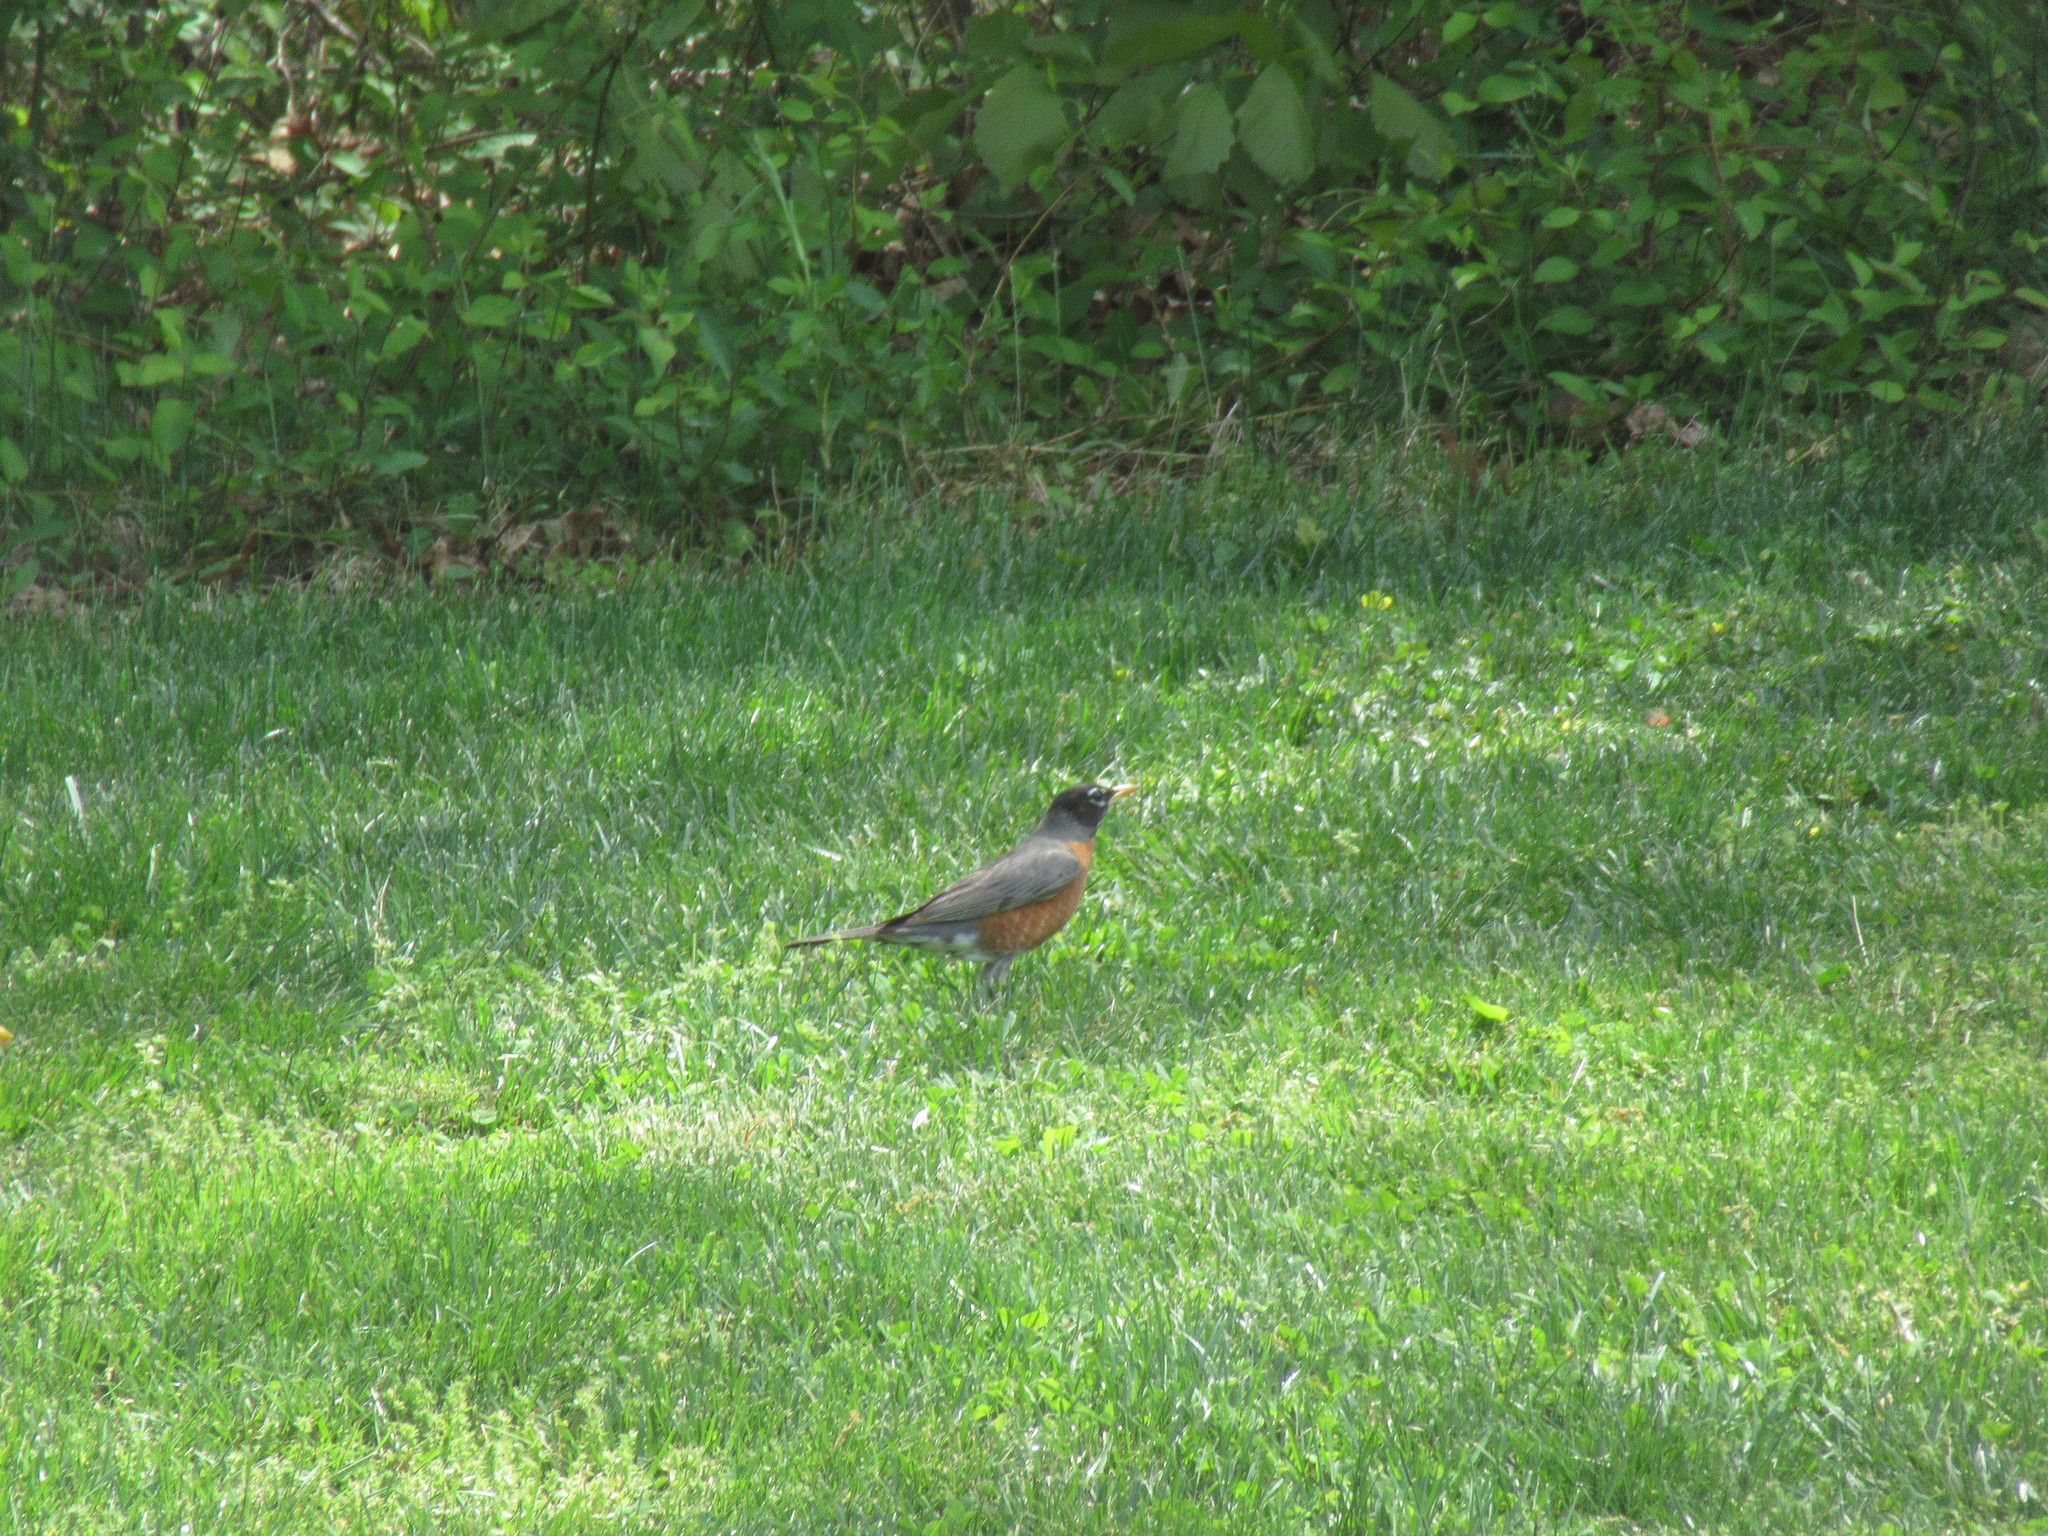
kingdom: Animalia
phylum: Chordata
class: Aves
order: Passeriformes
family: Turdidae
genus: Turdus
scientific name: Turdus migratorius
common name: American robin
